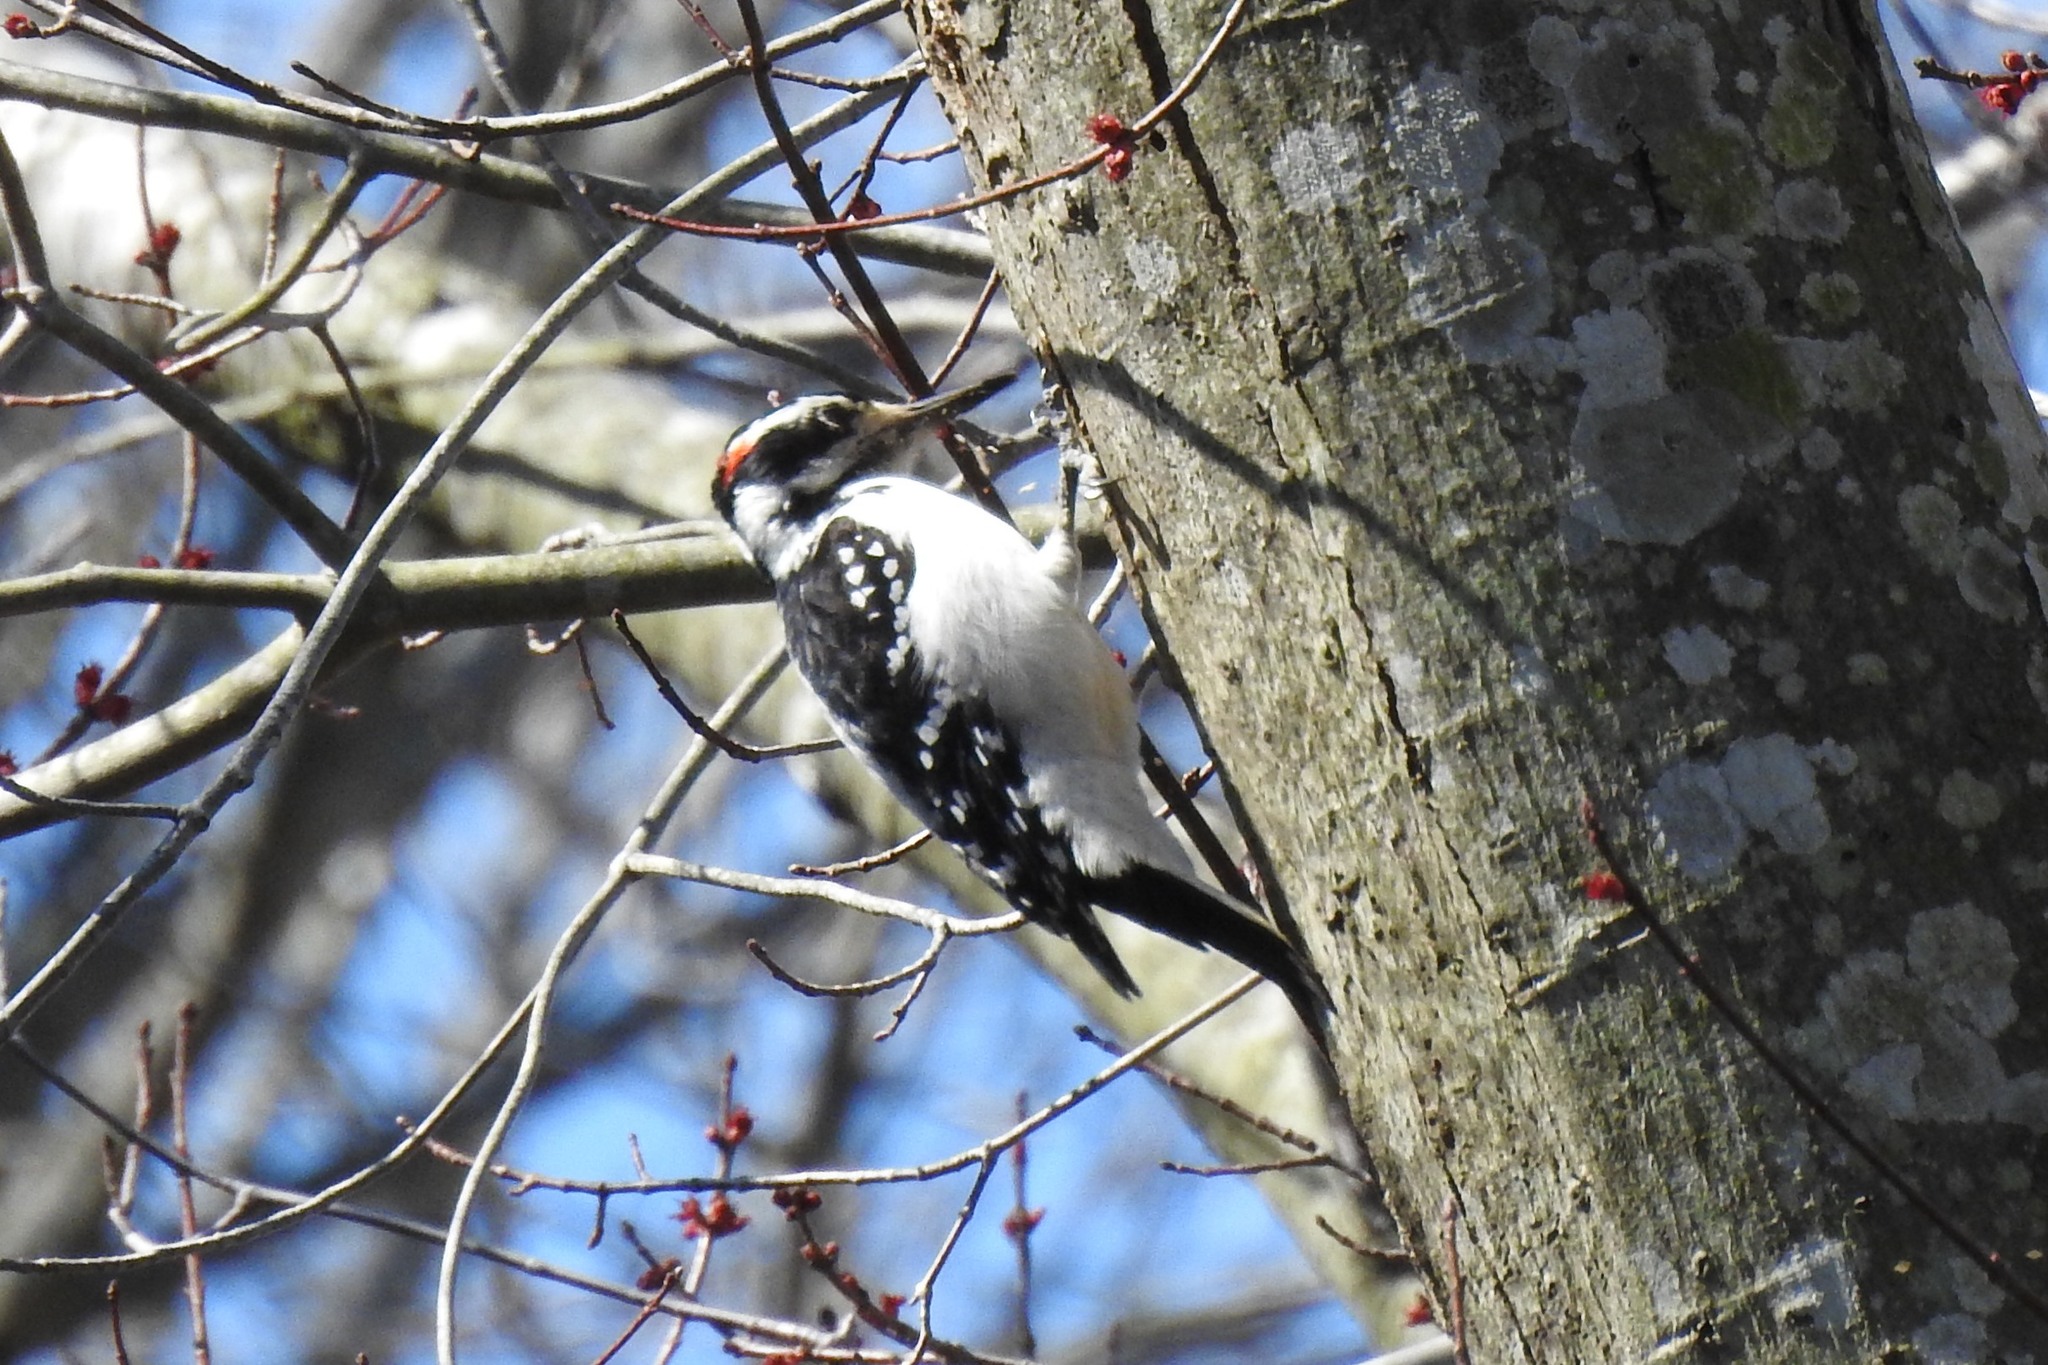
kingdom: Animalia
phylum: Chordata
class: Aves
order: Piciformes
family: Picidae
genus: Leuconotopicus
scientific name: Leuconotopicus villosus
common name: Hairy woodpecker
